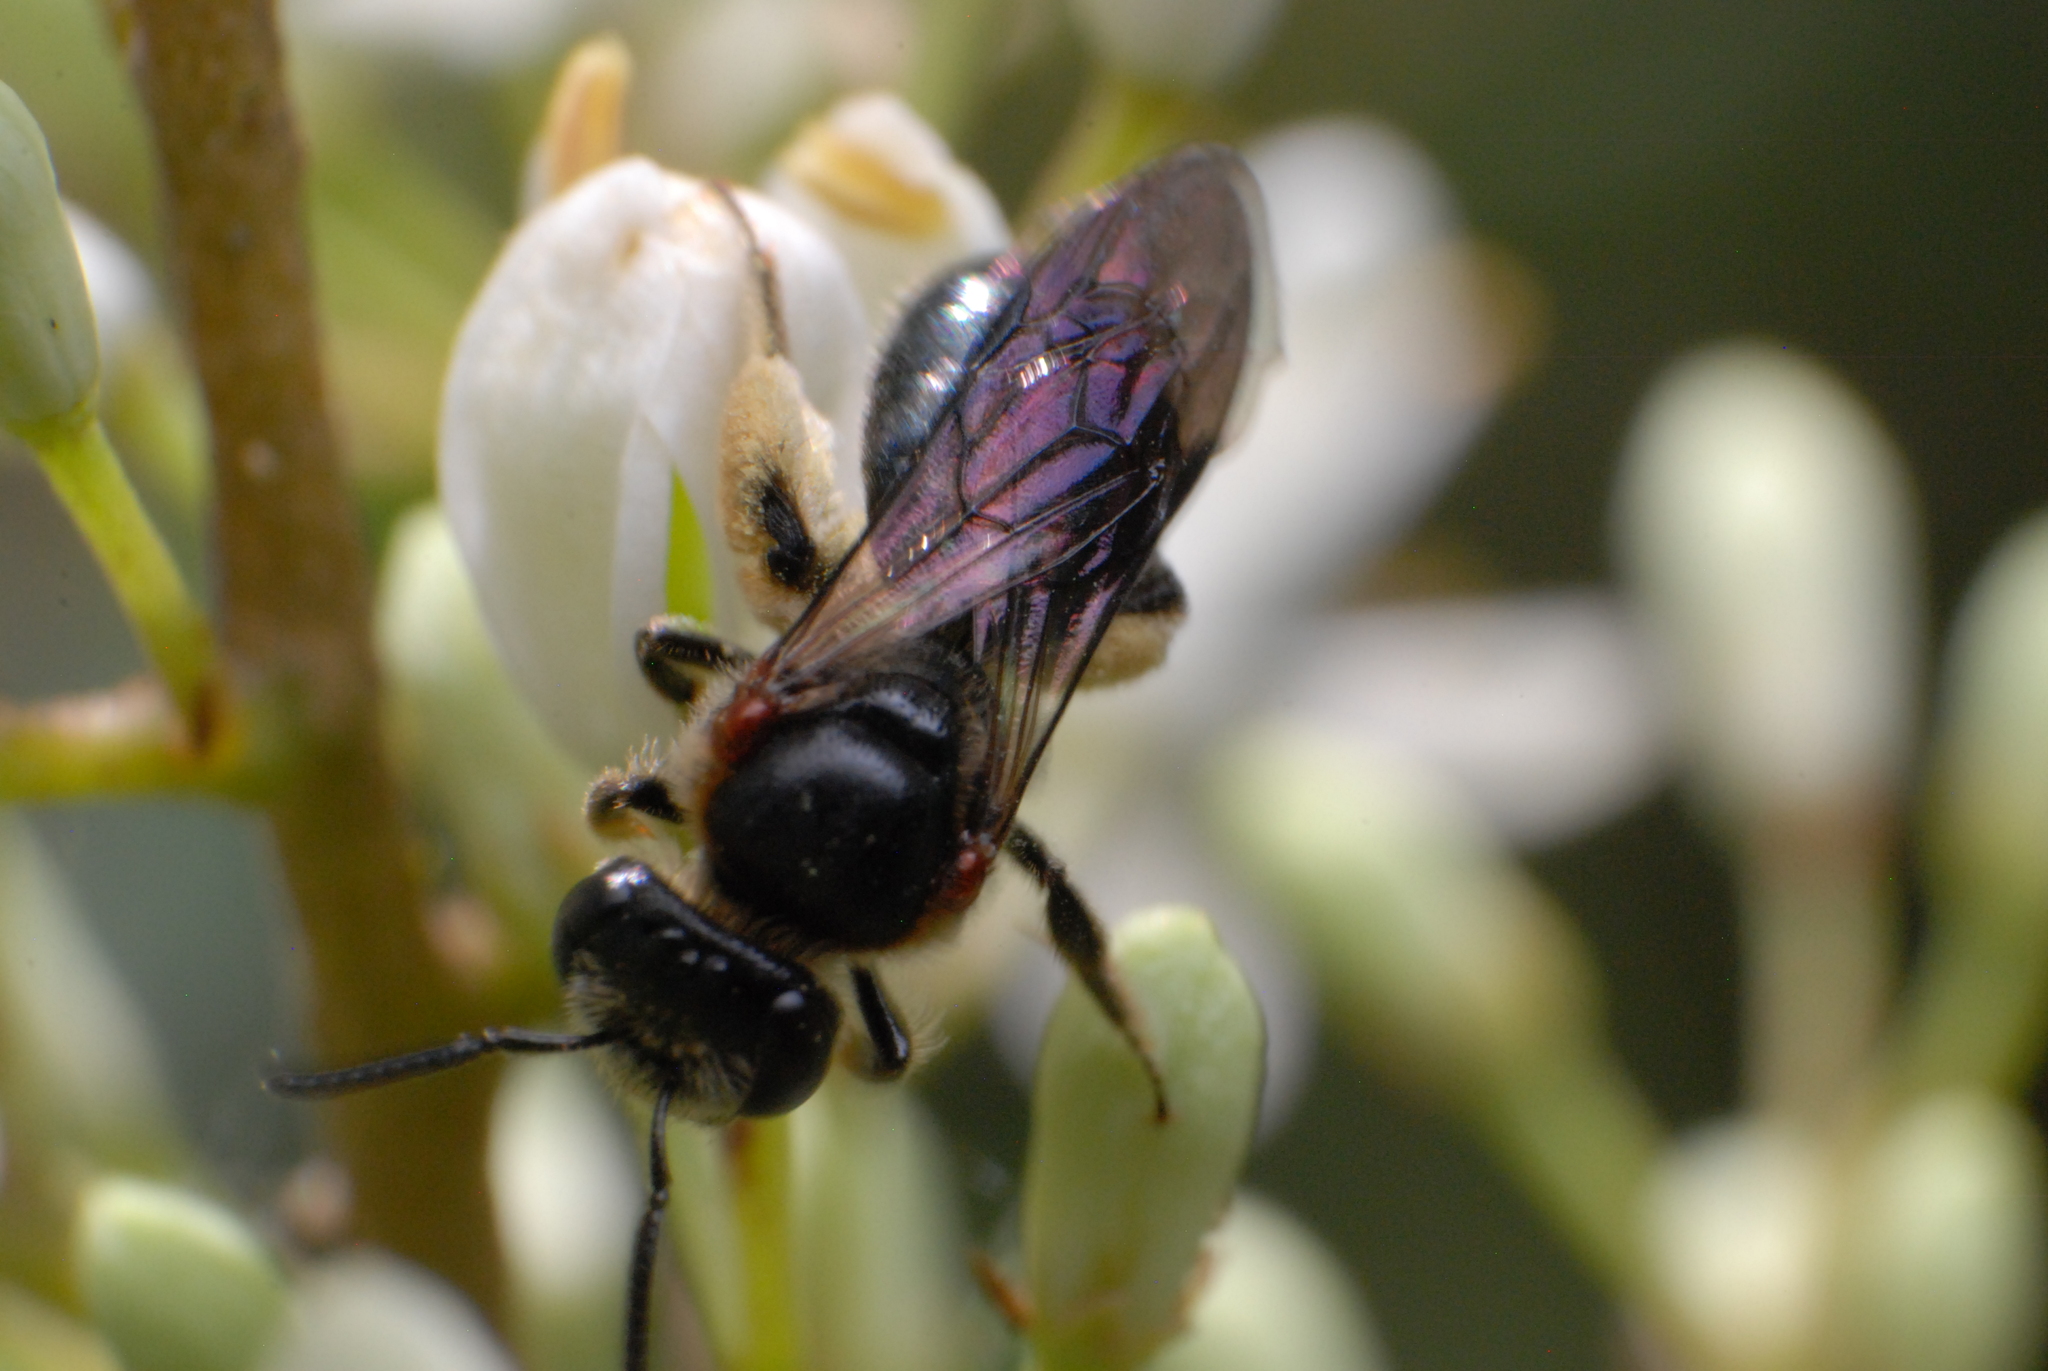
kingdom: Animalia
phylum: Arthropoda
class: Insecta
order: Hymenoptera
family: Colletidae
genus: Leioproctus
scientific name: Leioproctus launcestonensis
